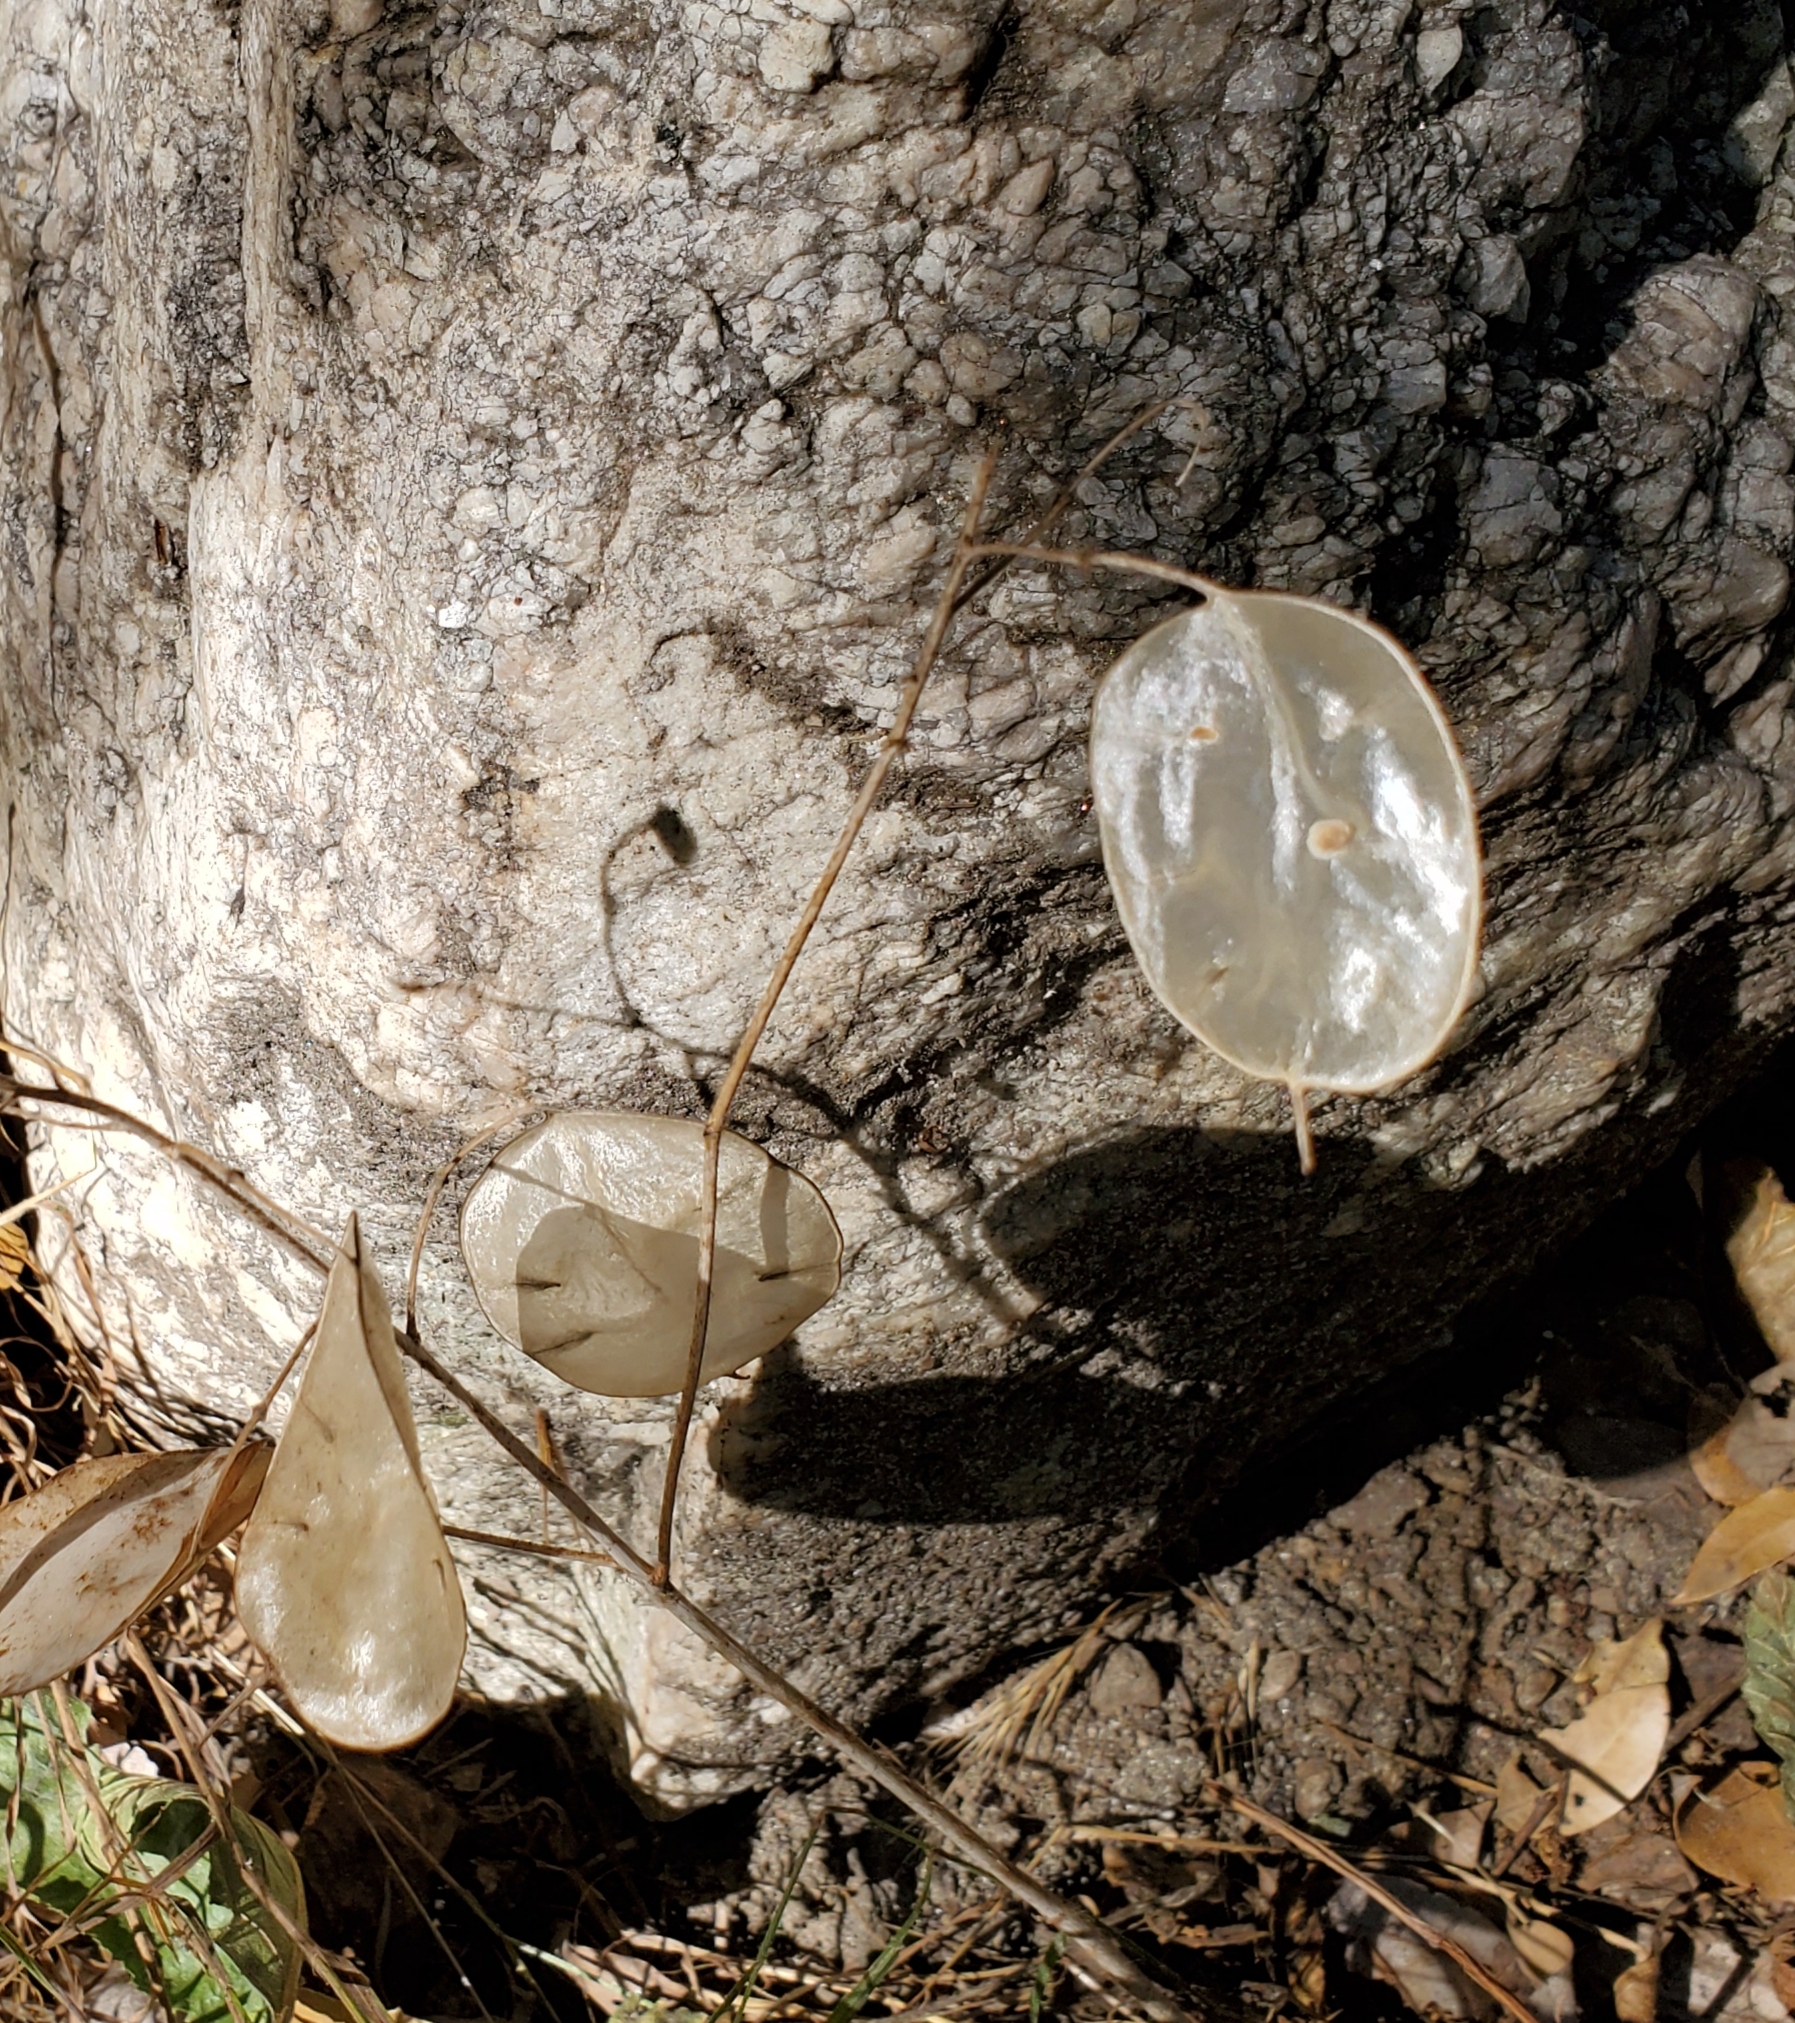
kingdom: Plantae
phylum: Tracheophyta
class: Magnoliopsida
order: Brassicales
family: Brassicaceae
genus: Lunaria
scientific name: Lunaria annua
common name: Honesty
